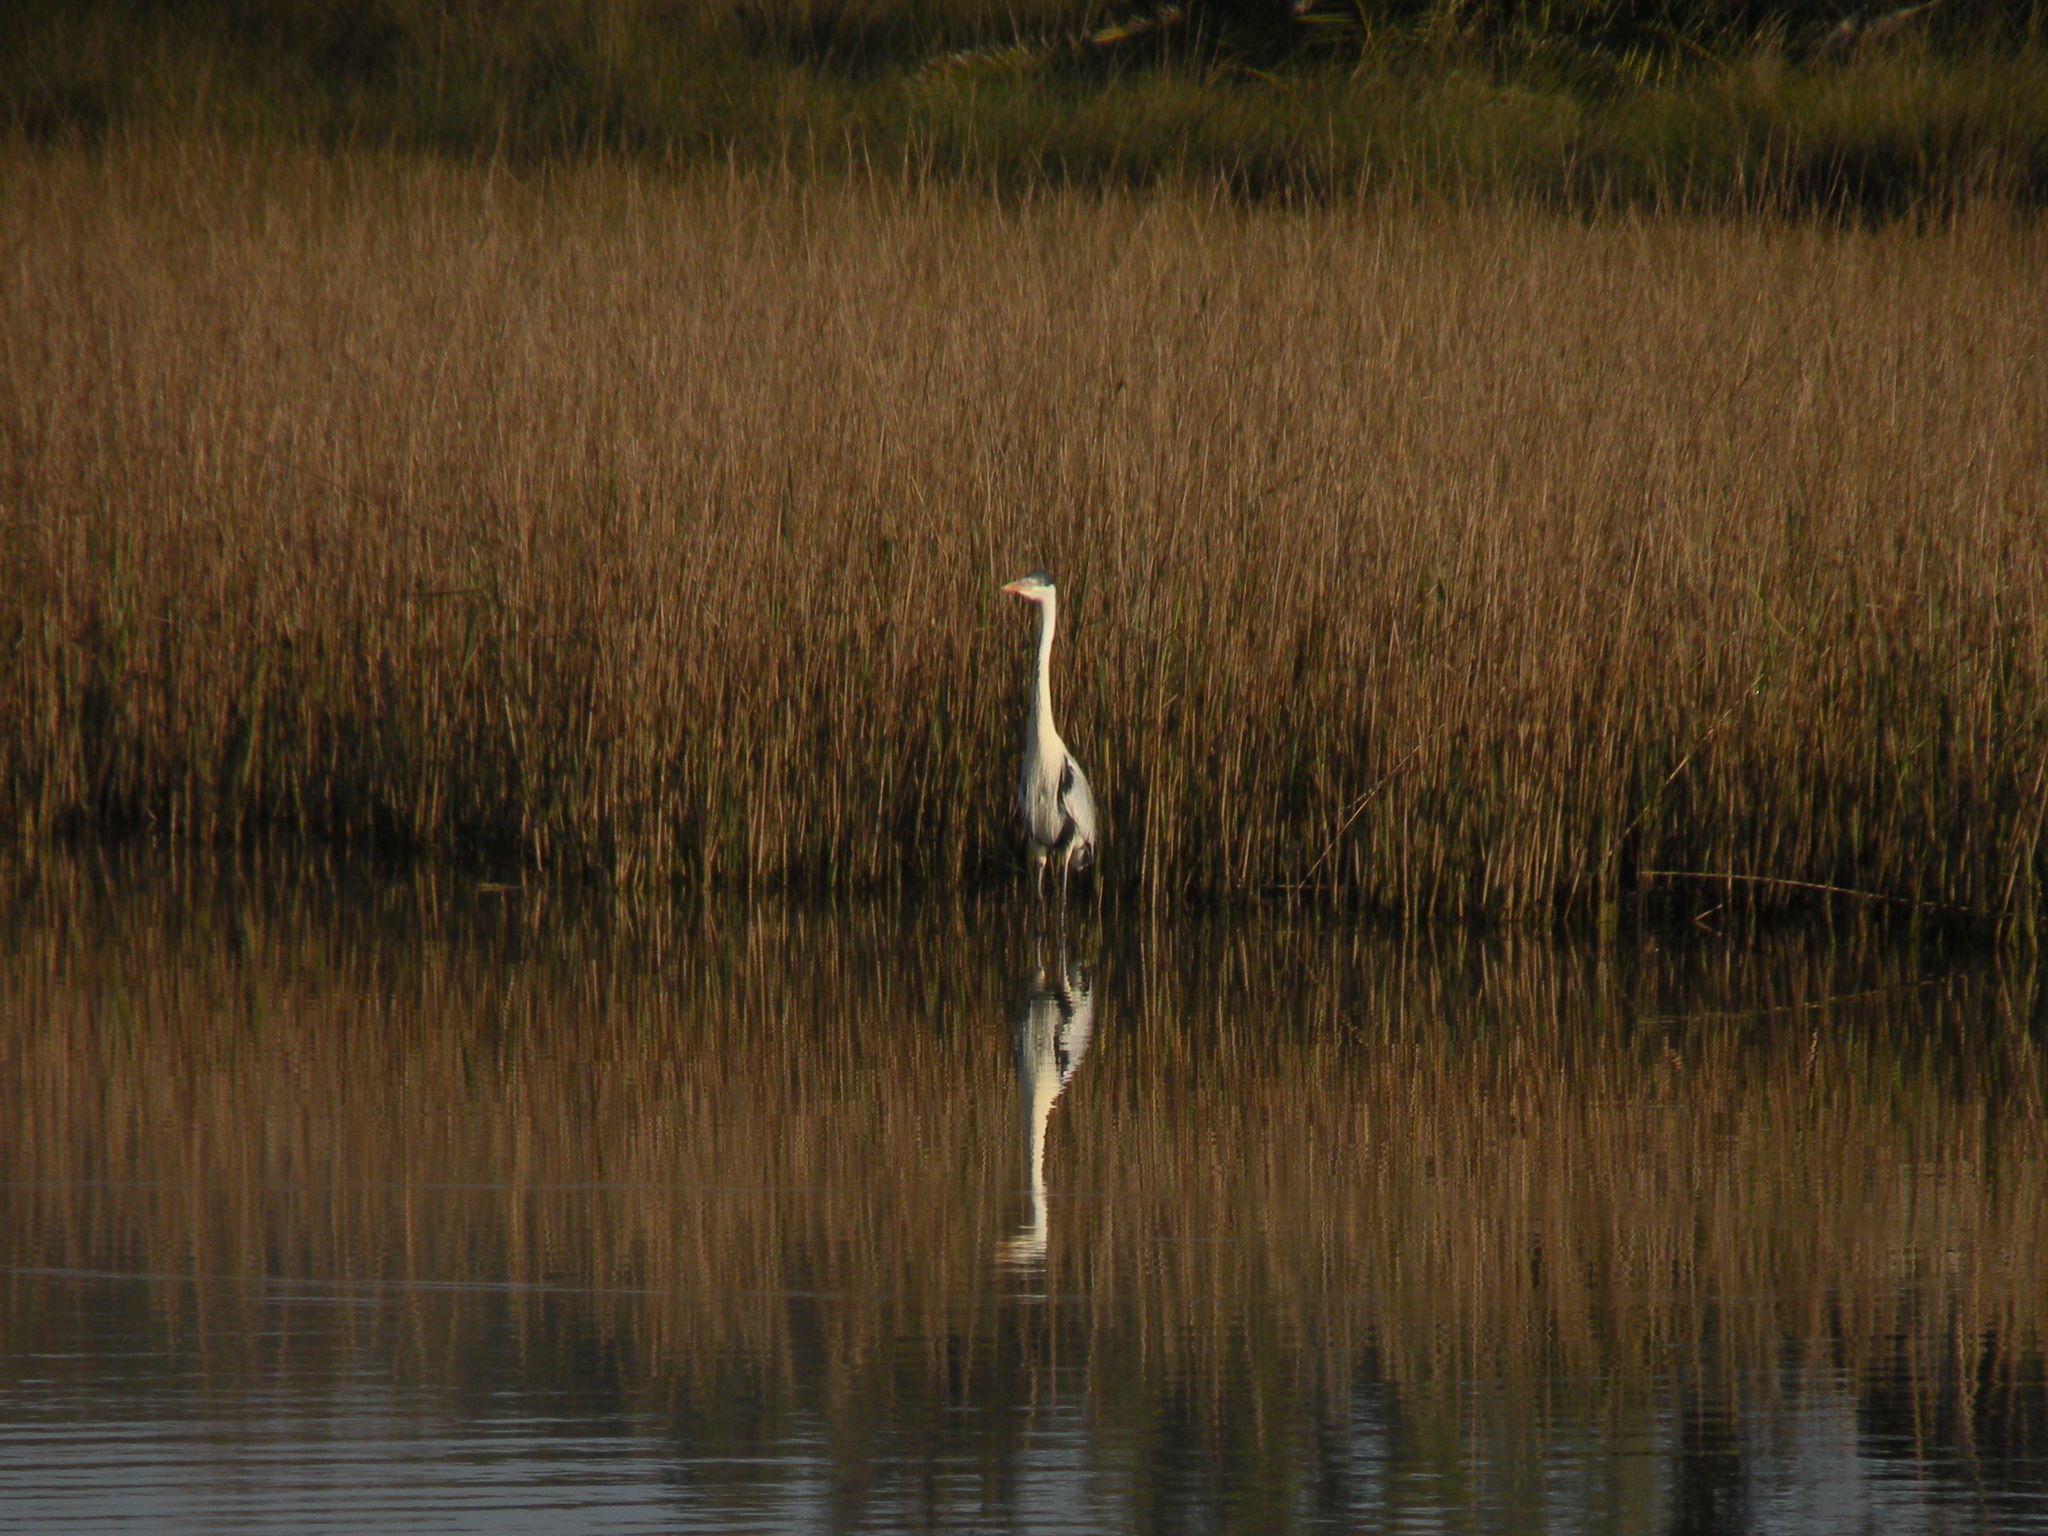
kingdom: Animalia
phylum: Chordata
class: Aves
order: Pelecaniformes
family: Ardeidae
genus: Ardea
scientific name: Ardea cocoi
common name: Cocoi heron
